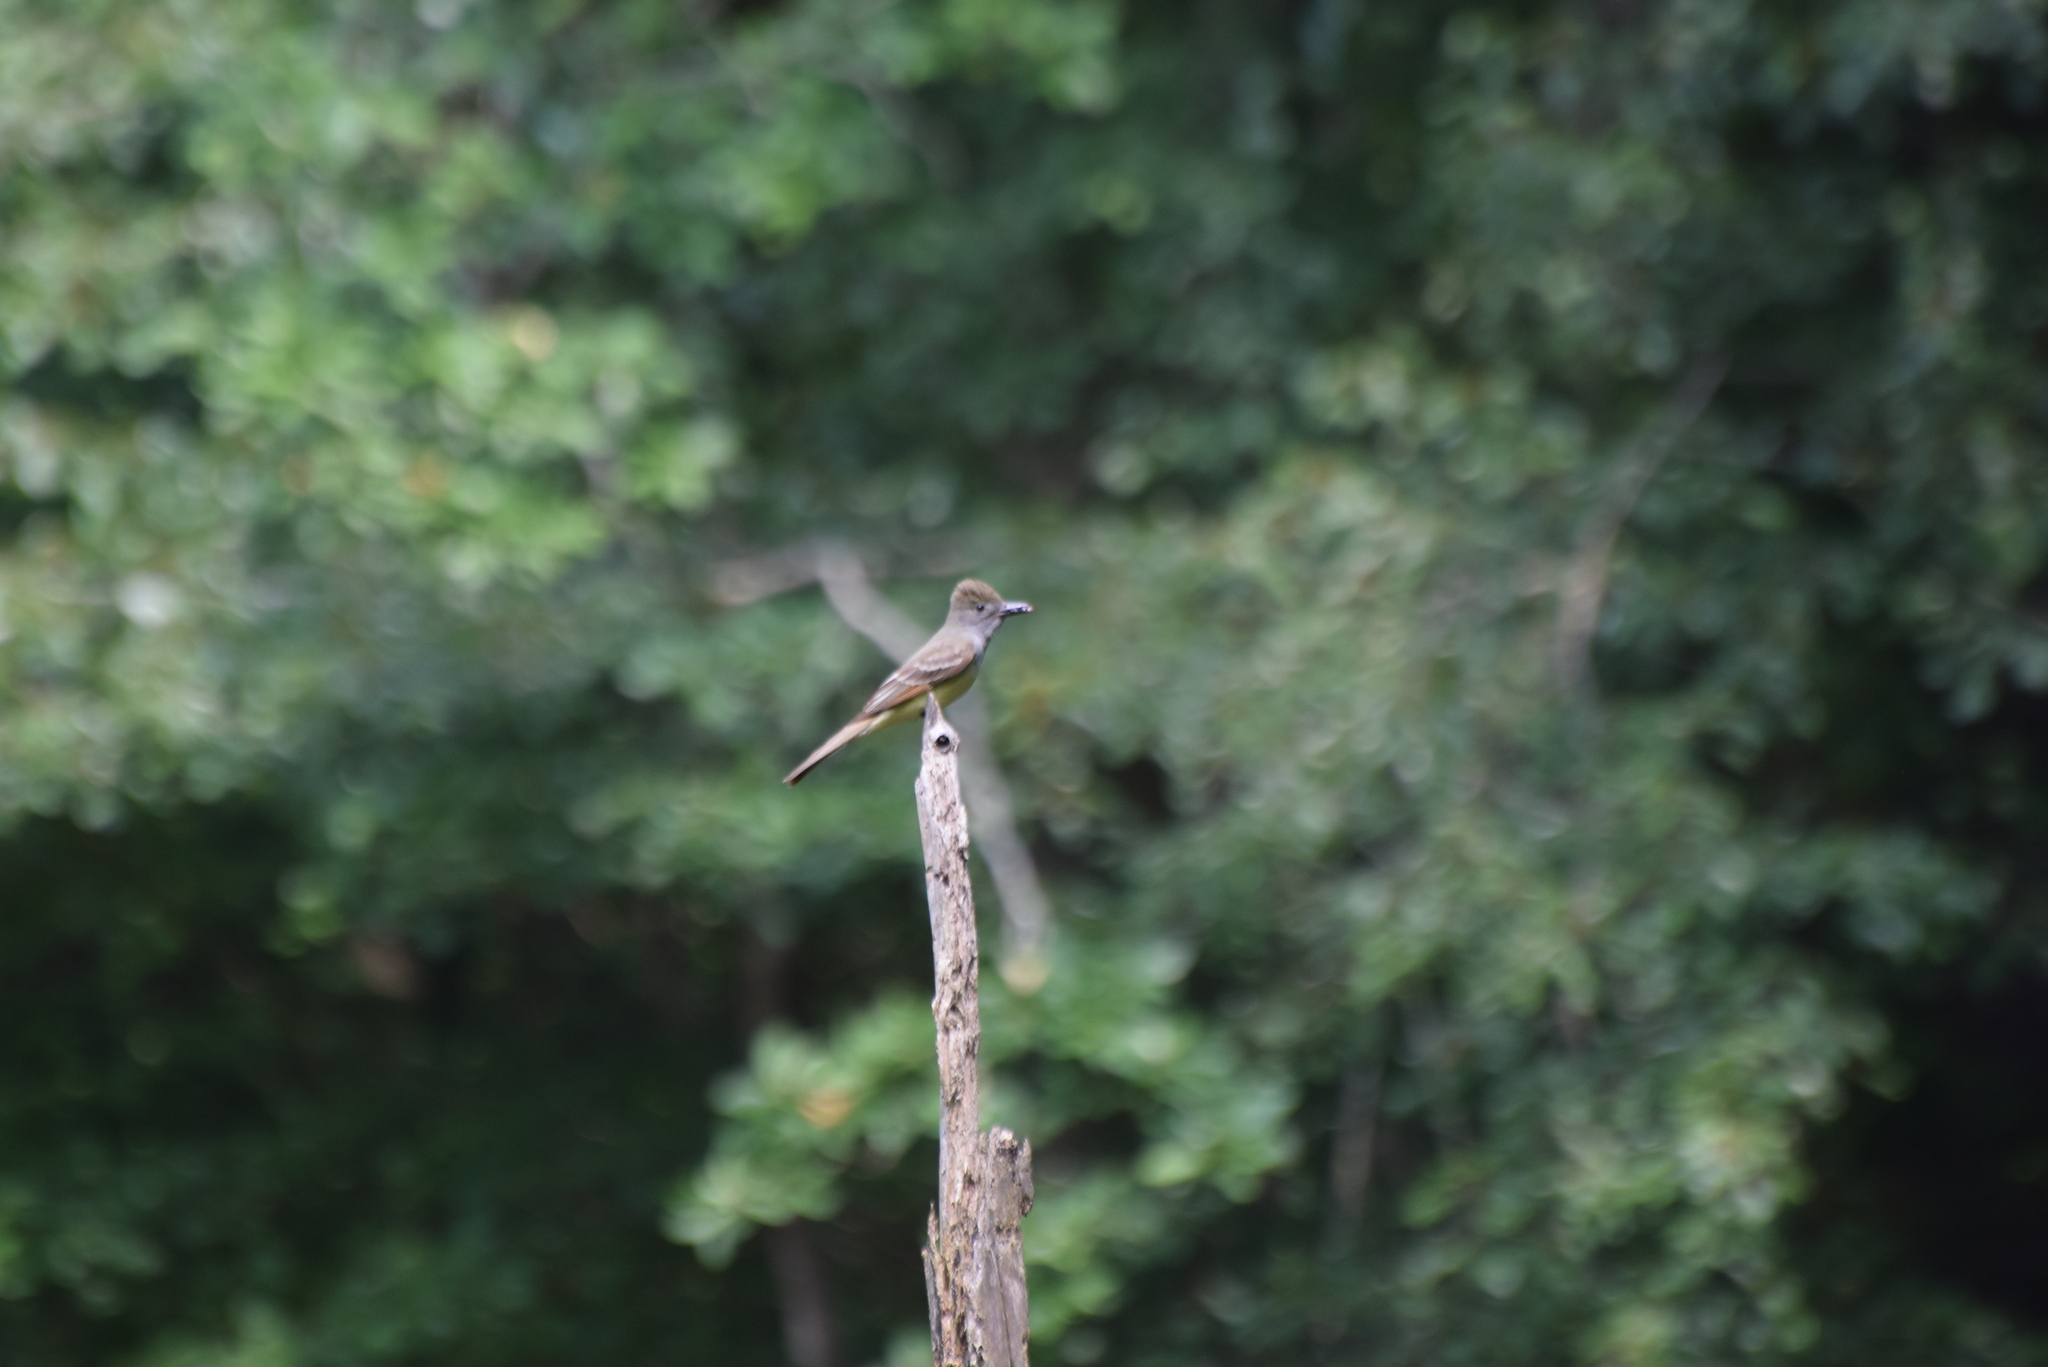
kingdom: Animalia
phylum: Chordata
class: Aves
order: Passeriformes
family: Tyrannidae
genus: Myiarchus
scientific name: Myiarchus crinitus
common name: Great crested flycatcher
